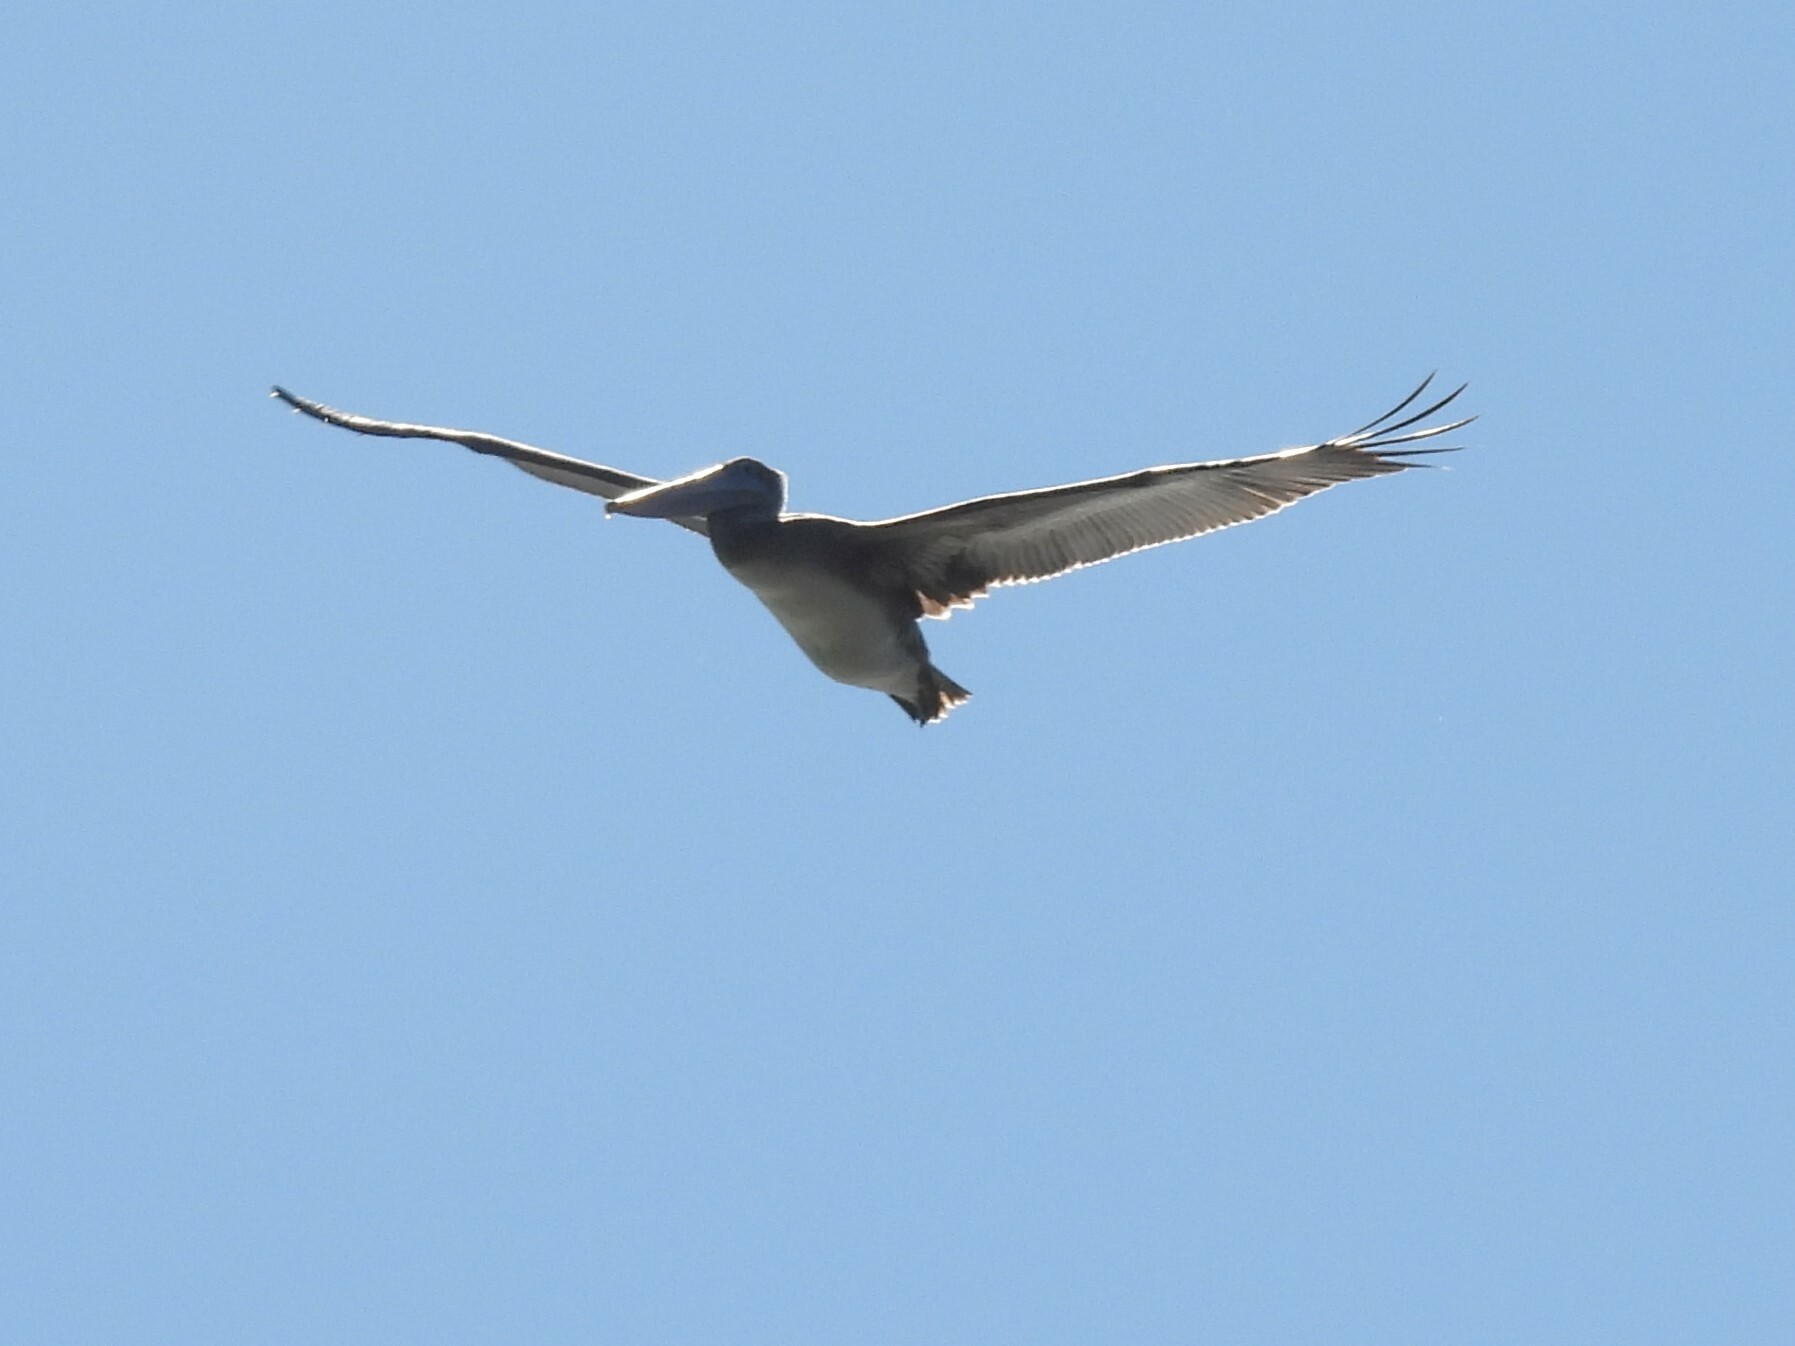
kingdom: Animalia
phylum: Chordata
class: Aves
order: Pelecaniformes
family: Pelecanidae
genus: Pelecanus
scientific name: Pelecanus occidentalis
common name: Brown pelican
